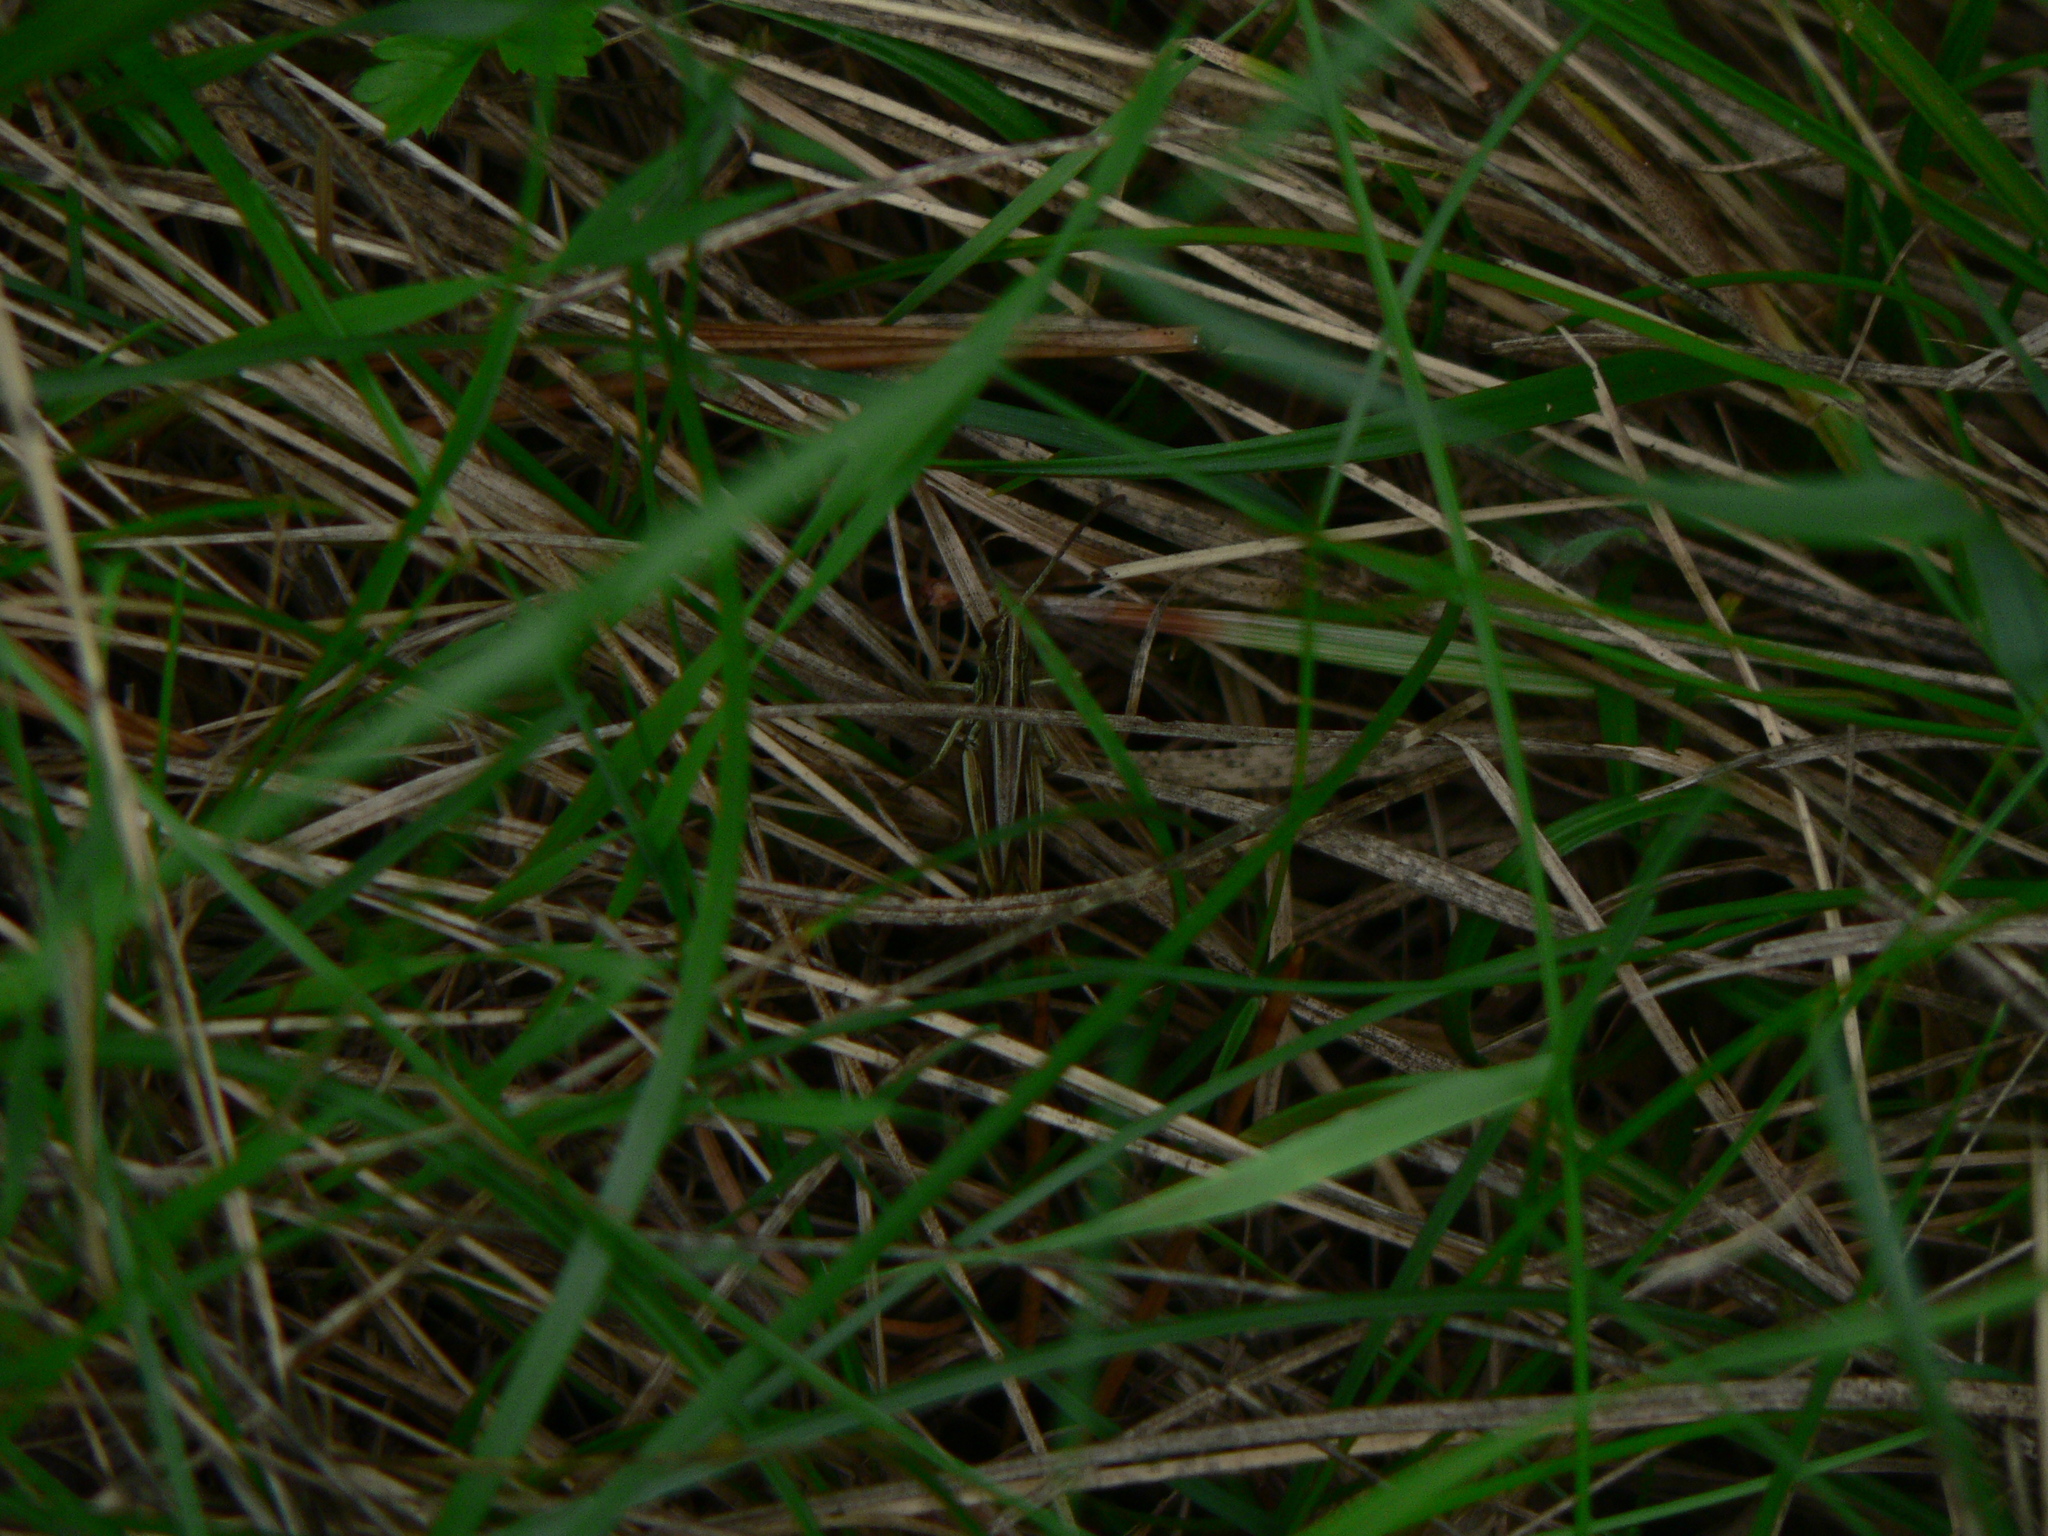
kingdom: Animalia
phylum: Arthropoda
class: Insecta
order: Orthoptera
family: Acrididae
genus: Pseudochorthippus
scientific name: Pseudochorthippus parallelus
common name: Meadow grasshopper
